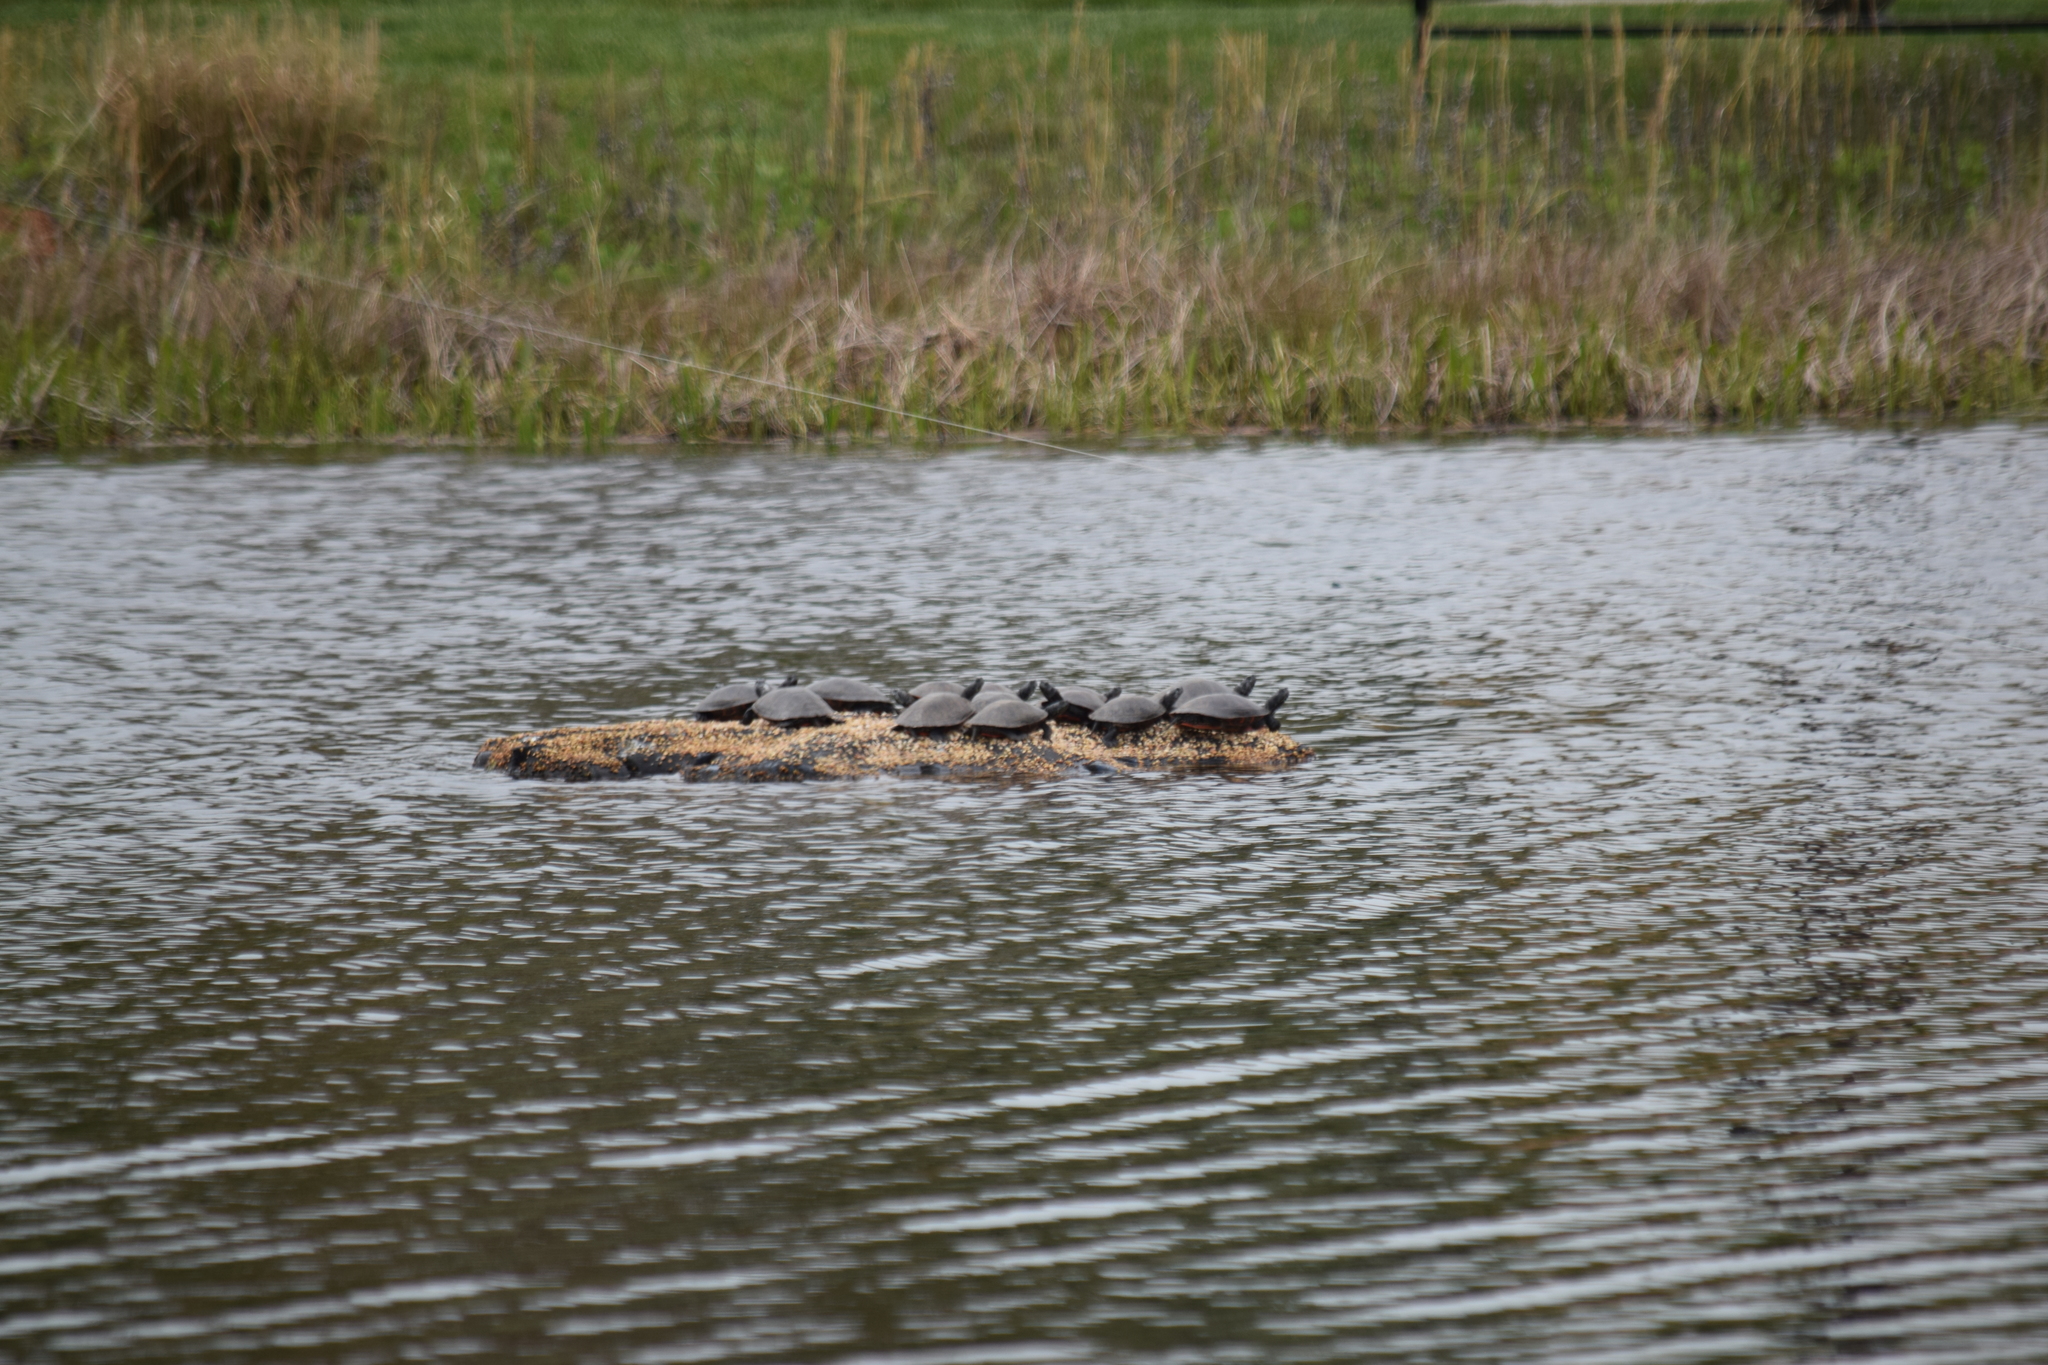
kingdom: Animalia
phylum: Chordata
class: Testudines
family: Emydidae
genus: Pseudemys
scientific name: Pseudemys rubriventris
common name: American red-bellied turtle
